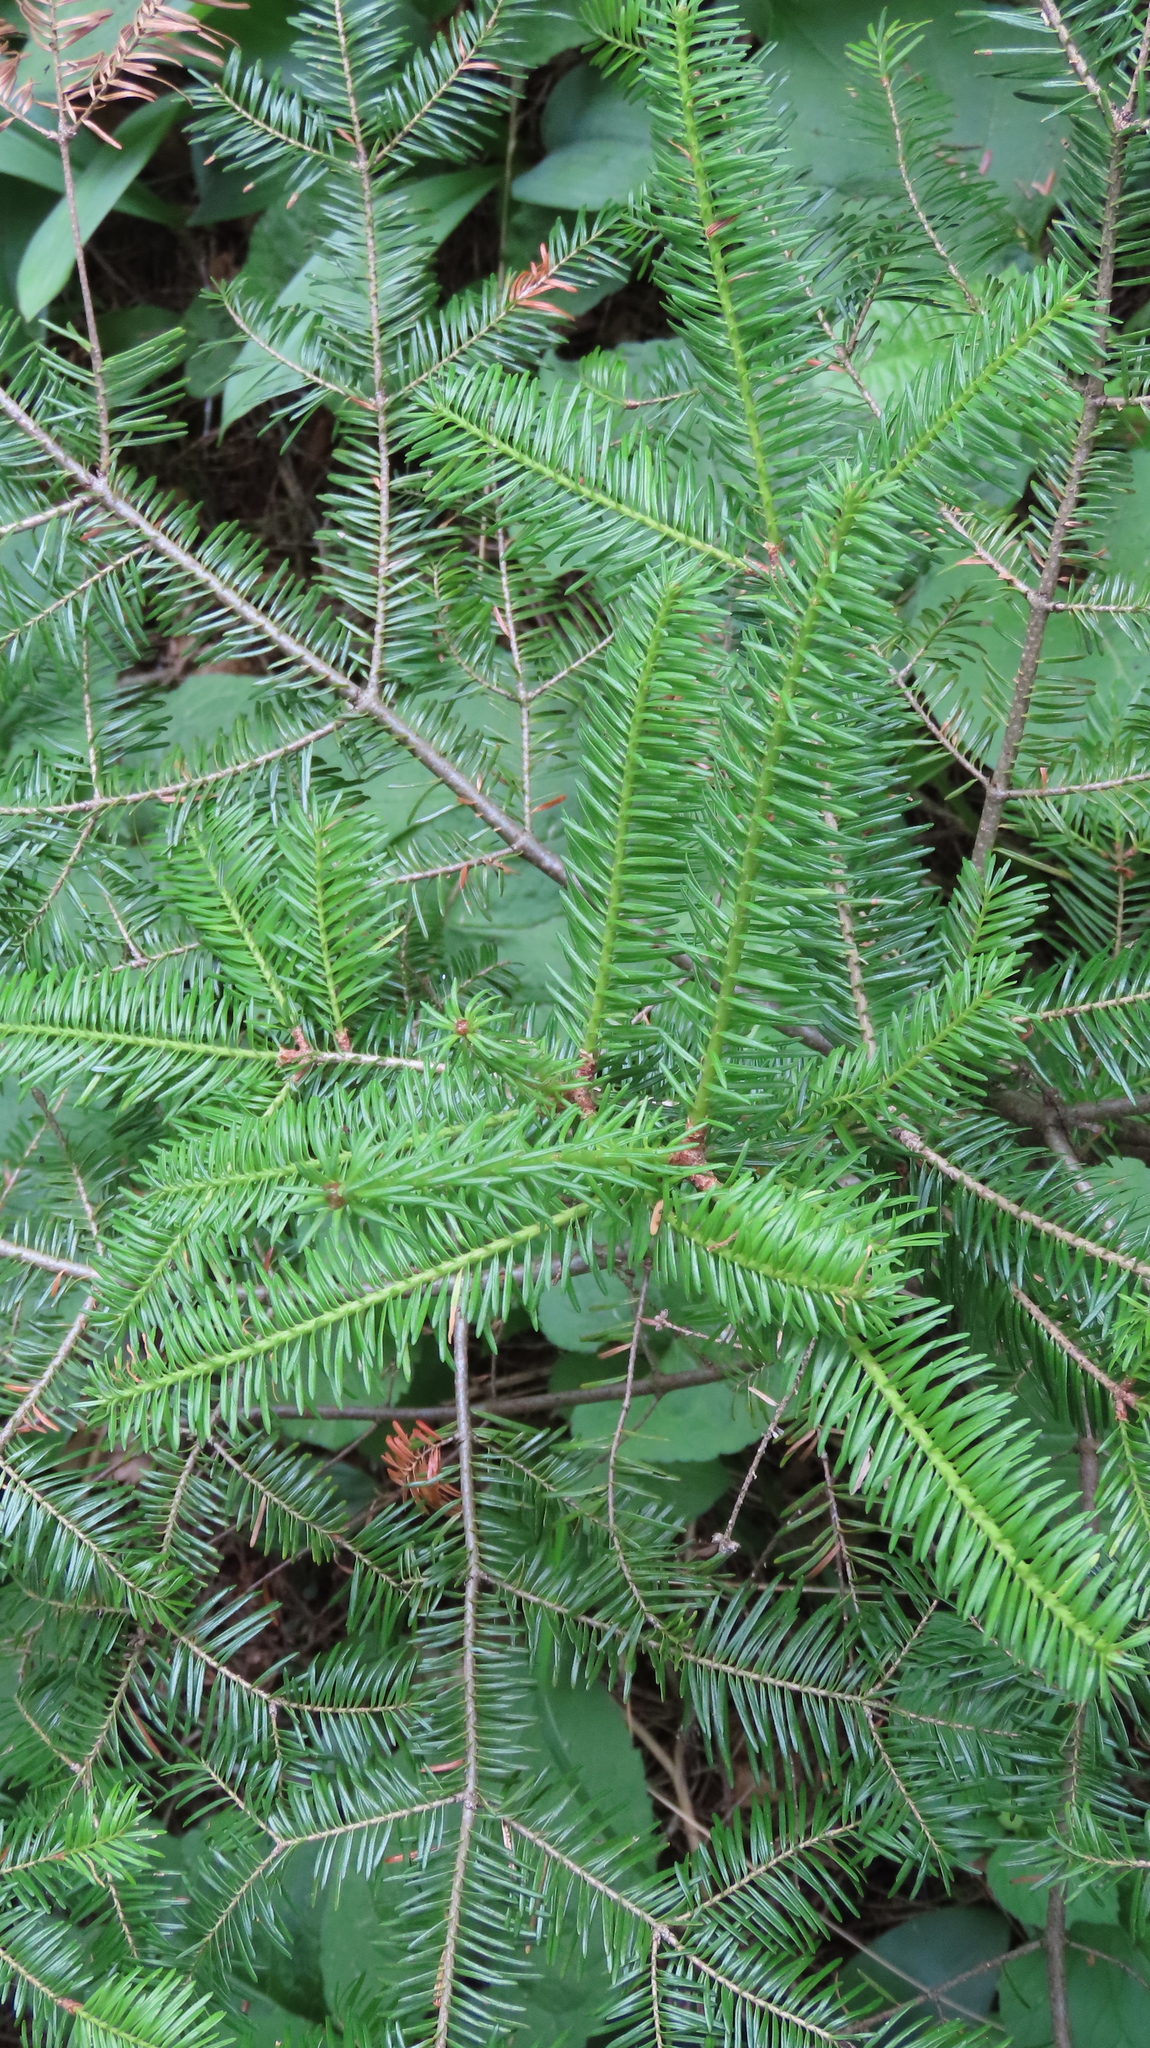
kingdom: Plantae
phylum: Tracheophyta
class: Pinopsida
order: Pinales
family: Pinaceae
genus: Abies
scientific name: Abies balsamea
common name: Balsam fir
